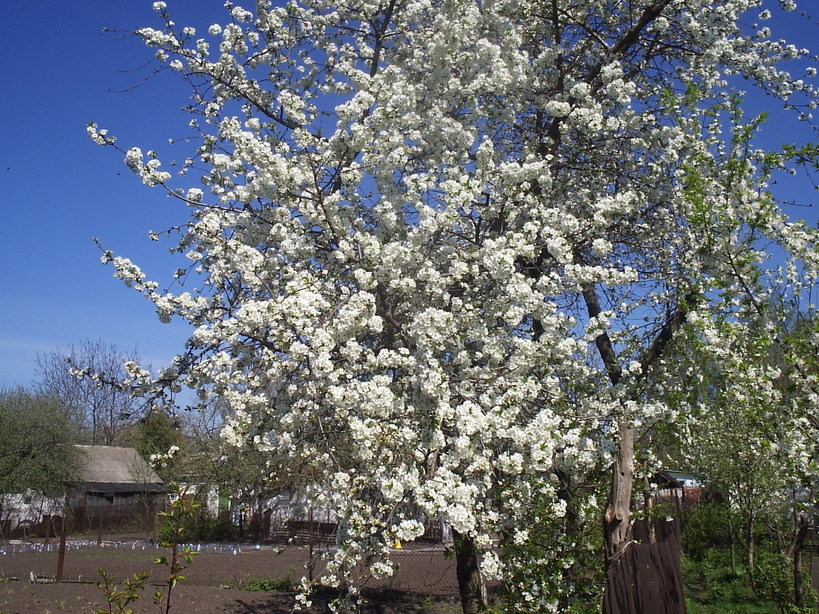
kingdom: Plantae
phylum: Tracheophyta
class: Magnoliopsida
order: Rosales
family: Rosaceae
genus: Prunus
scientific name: Prunus avium
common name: Sweet cherry
